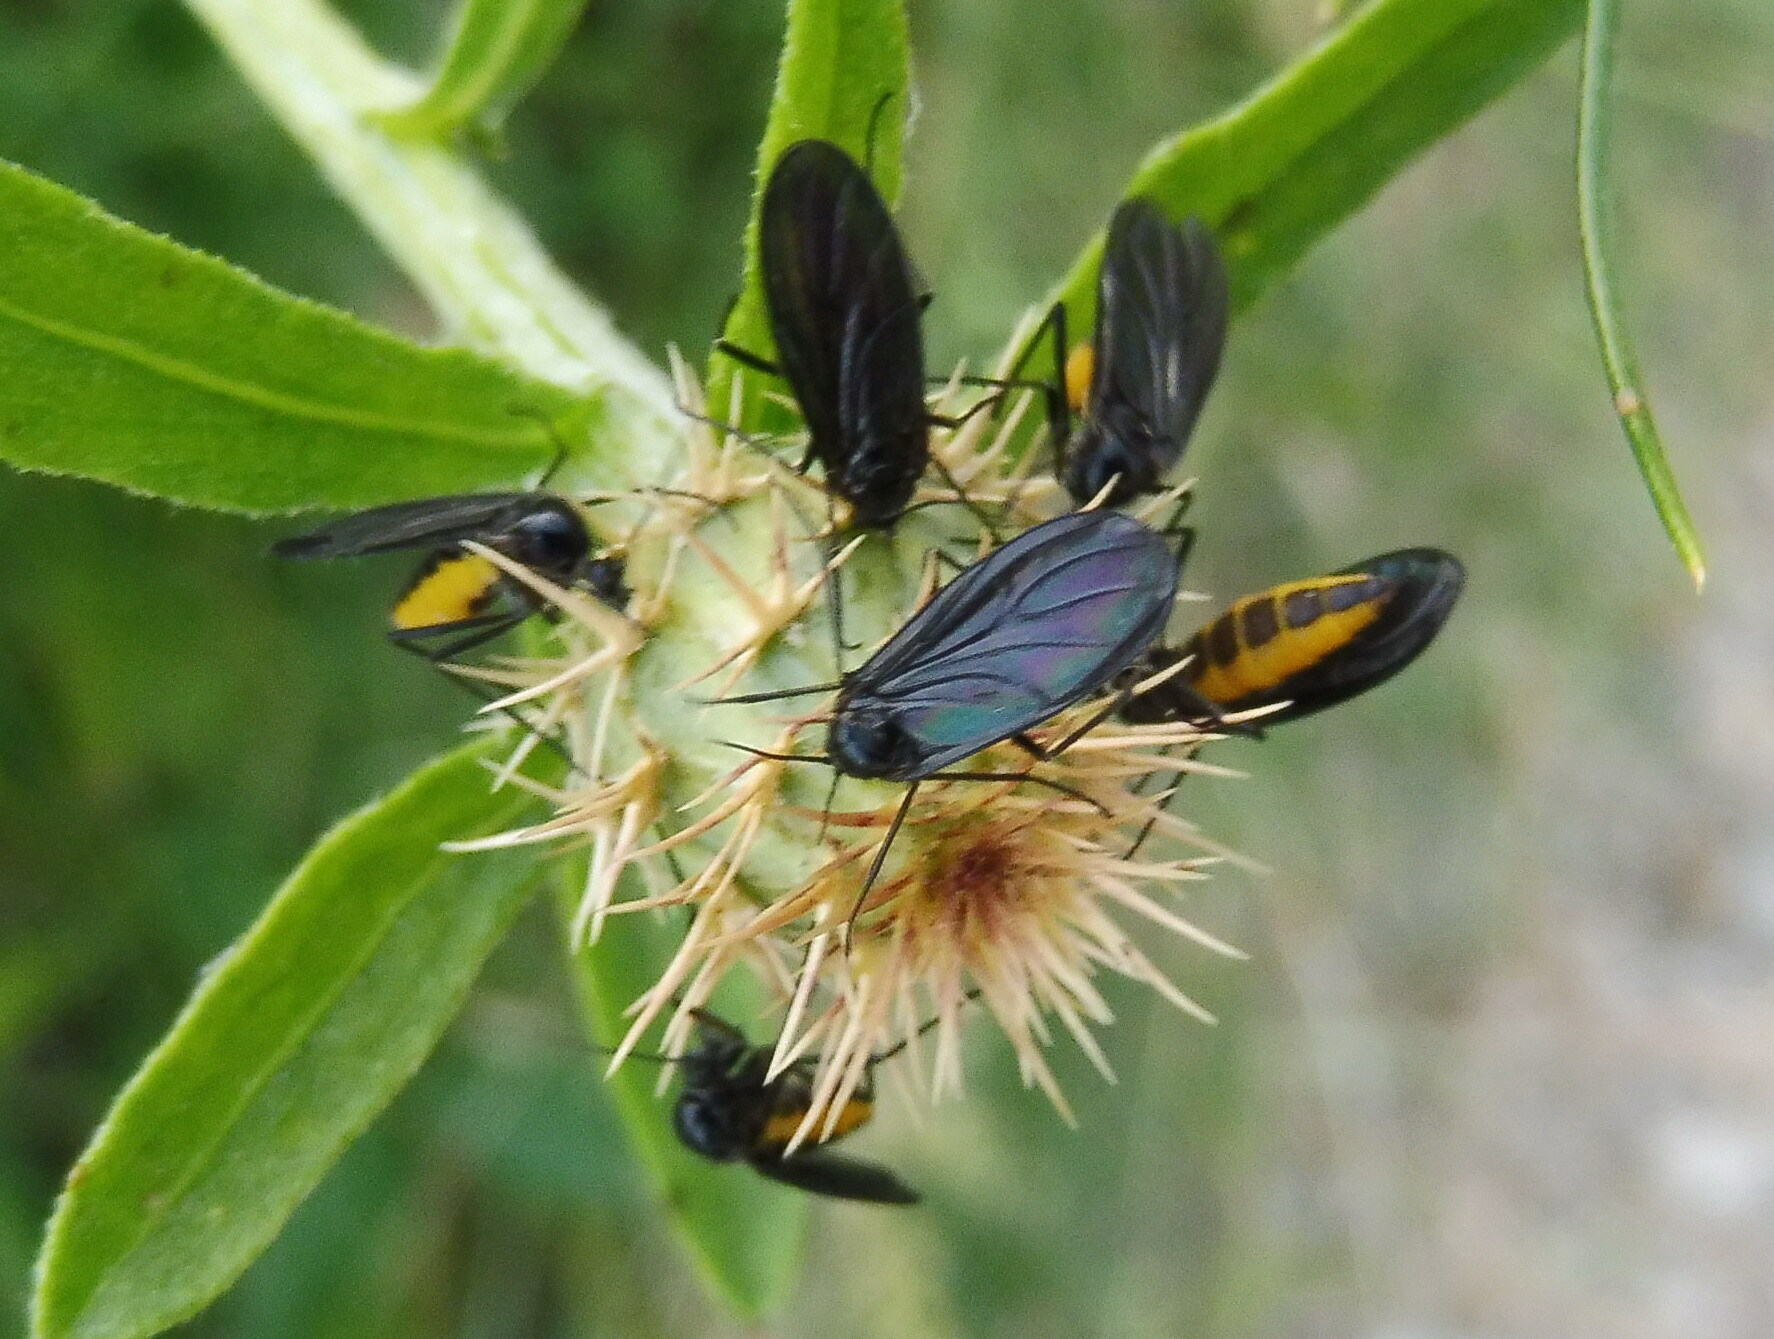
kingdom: Animalia
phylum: Arthropoda
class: Insecta
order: Diptera
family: Sciaridae
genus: Sciara
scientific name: Sciara hemerobioides
